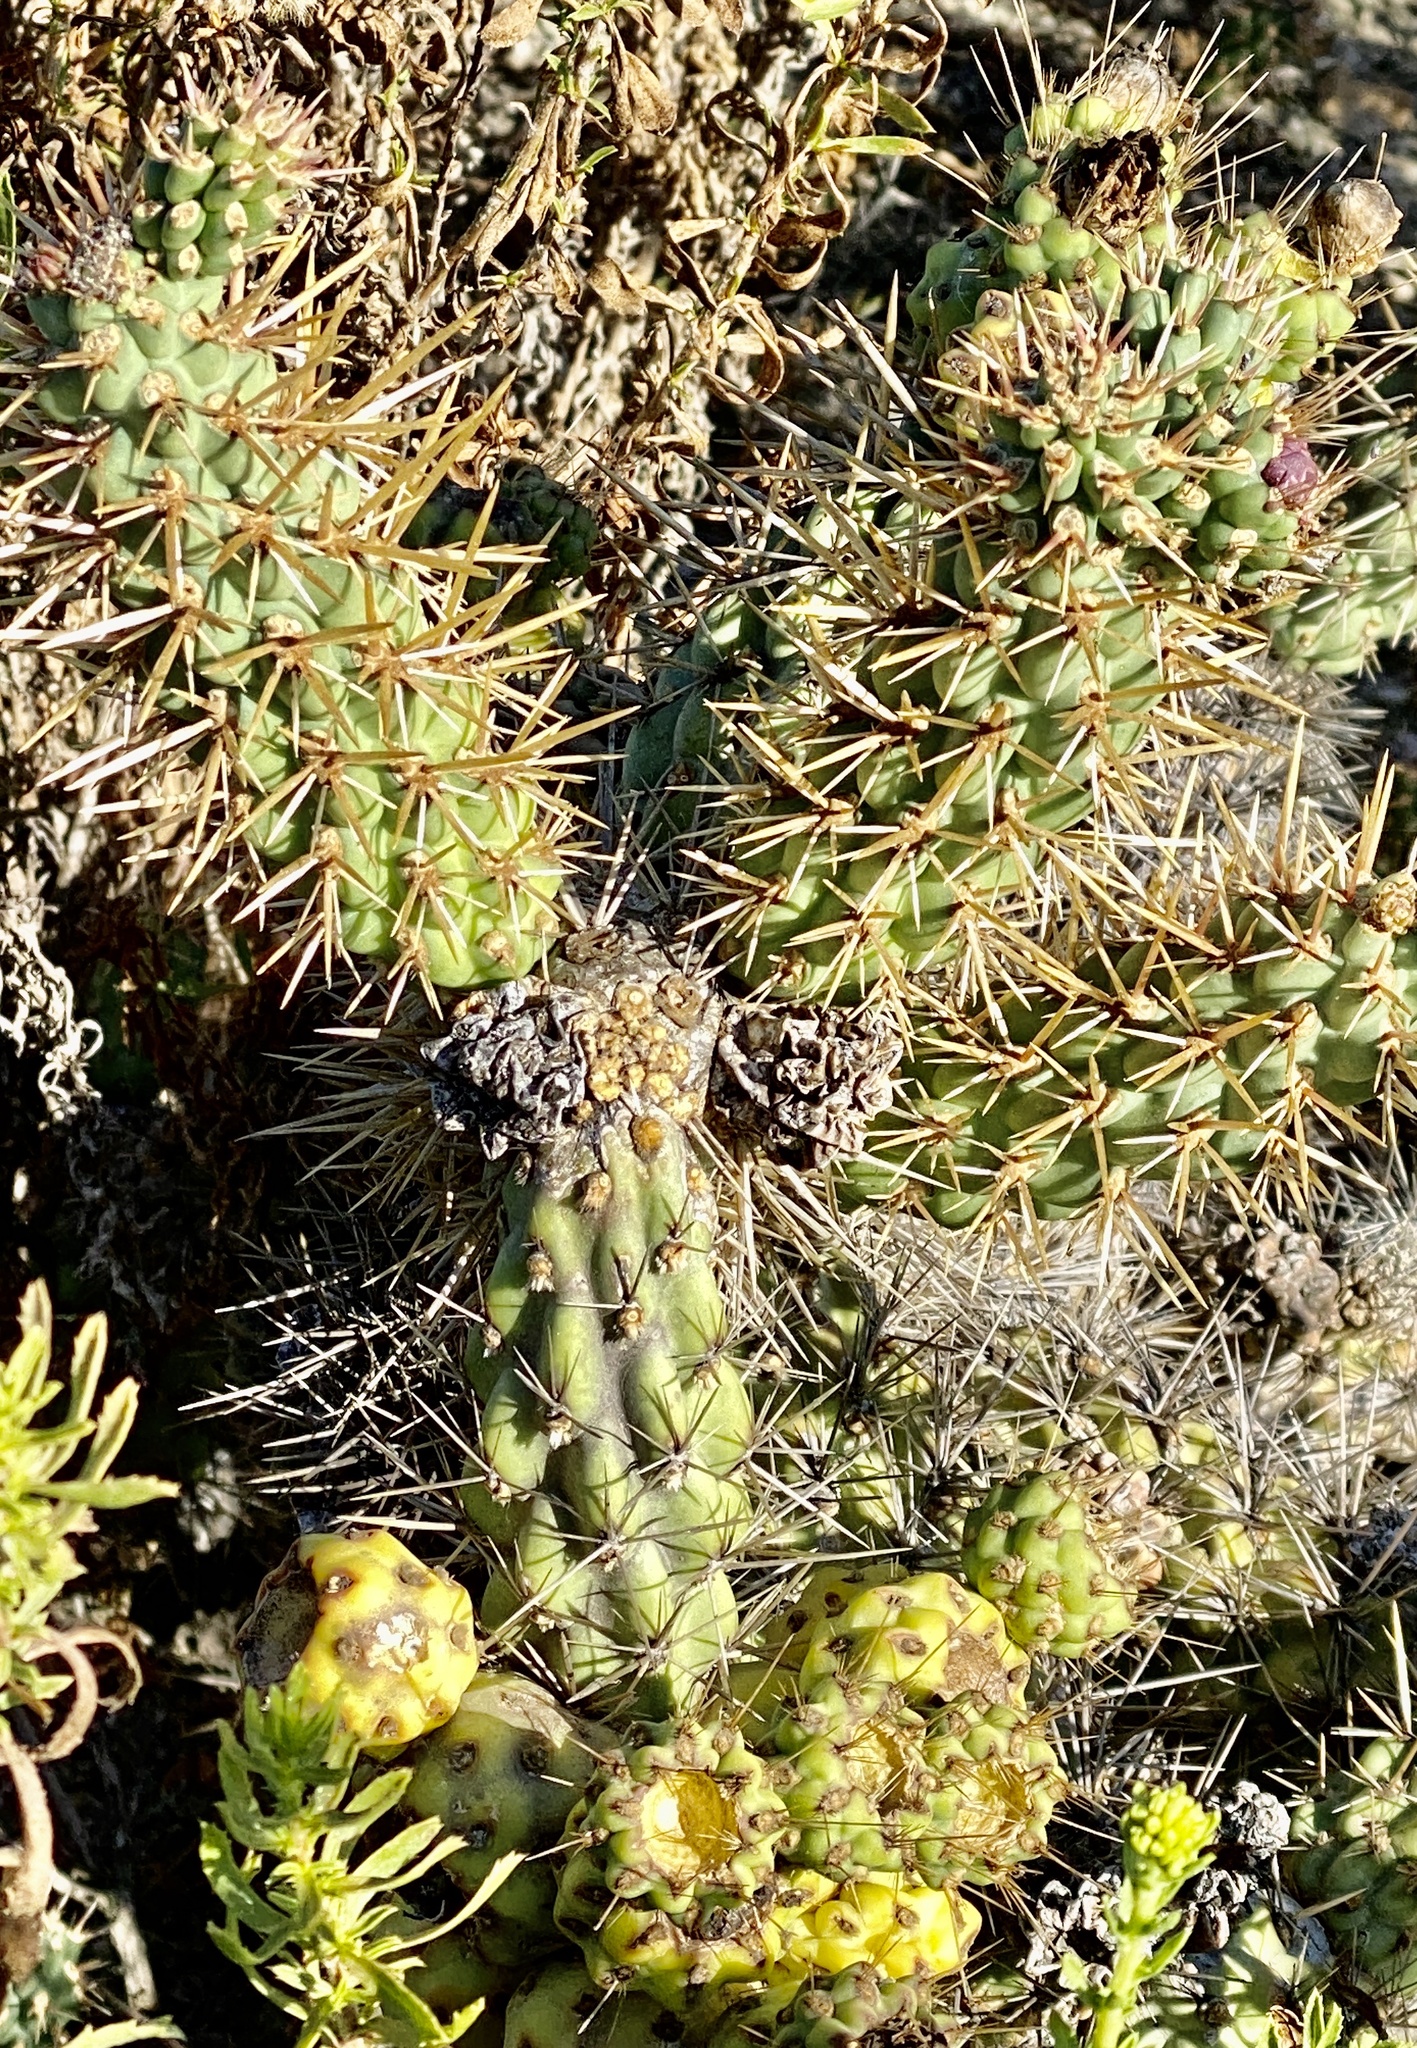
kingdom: Plantae
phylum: Tracheophyta
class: Magnoliopsida
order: Caryophyllales
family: Cactaceae
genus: Cylindropuntia
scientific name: Cylindropuntia prolifera
